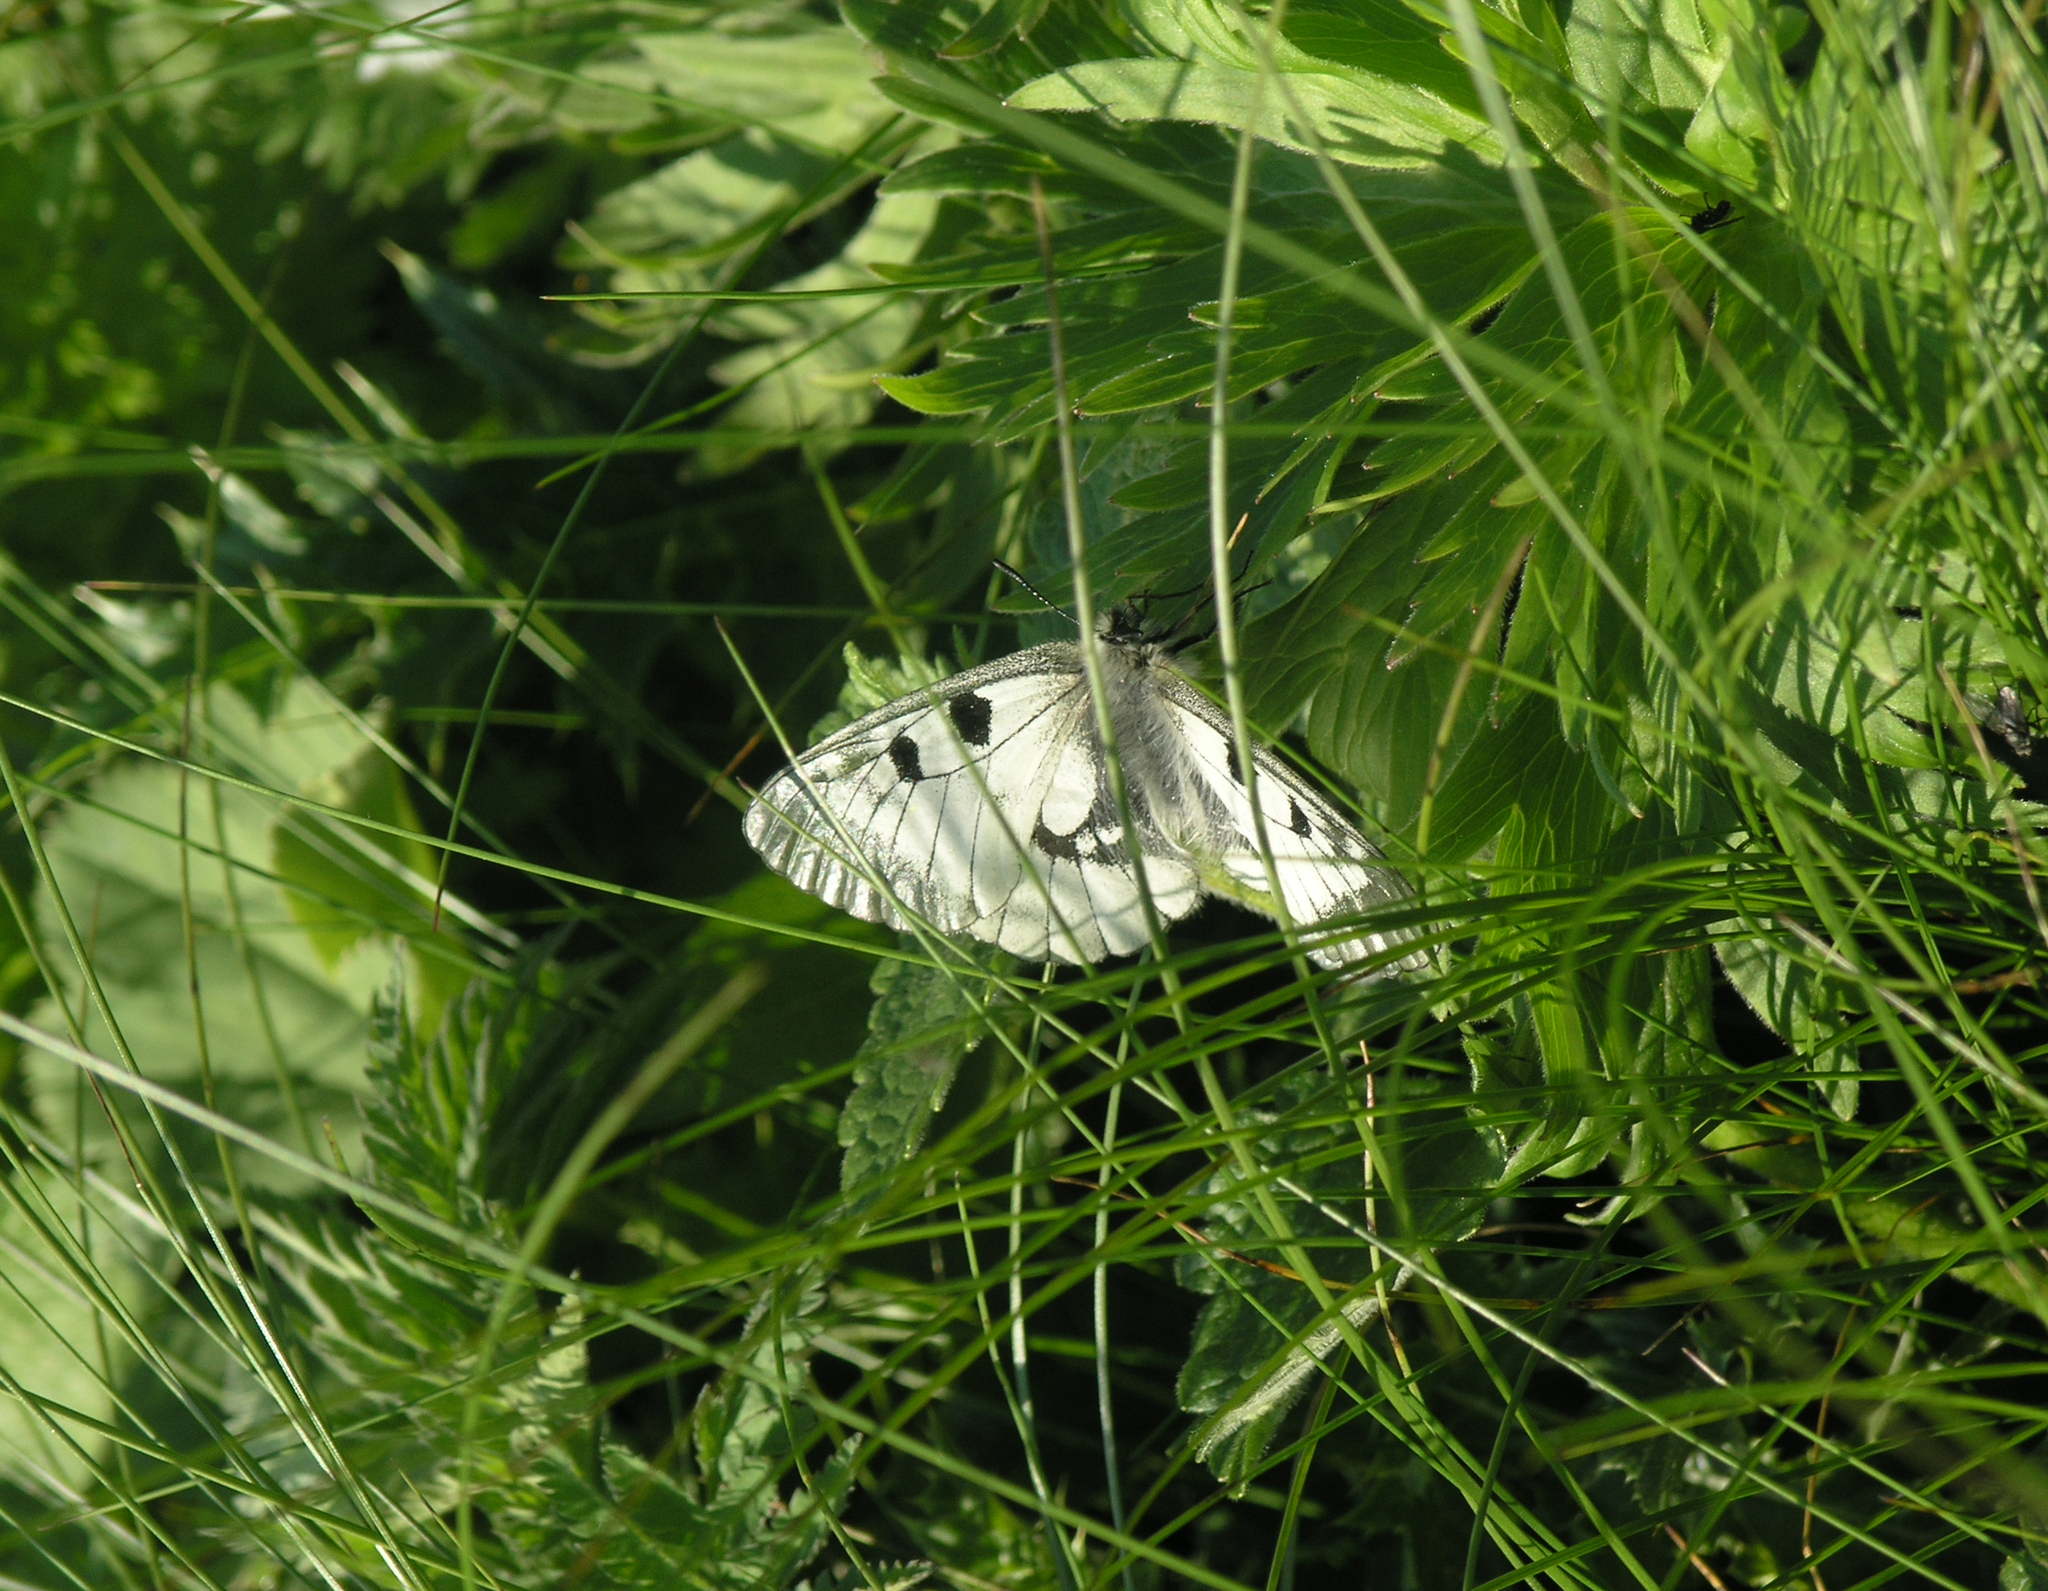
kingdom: Animalia
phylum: Arthropoda
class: Insecta
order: Lepidoptera
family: Papilionidae
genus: Parnassius
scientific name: Parnassius mnemosyne
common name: Clouded apollo
